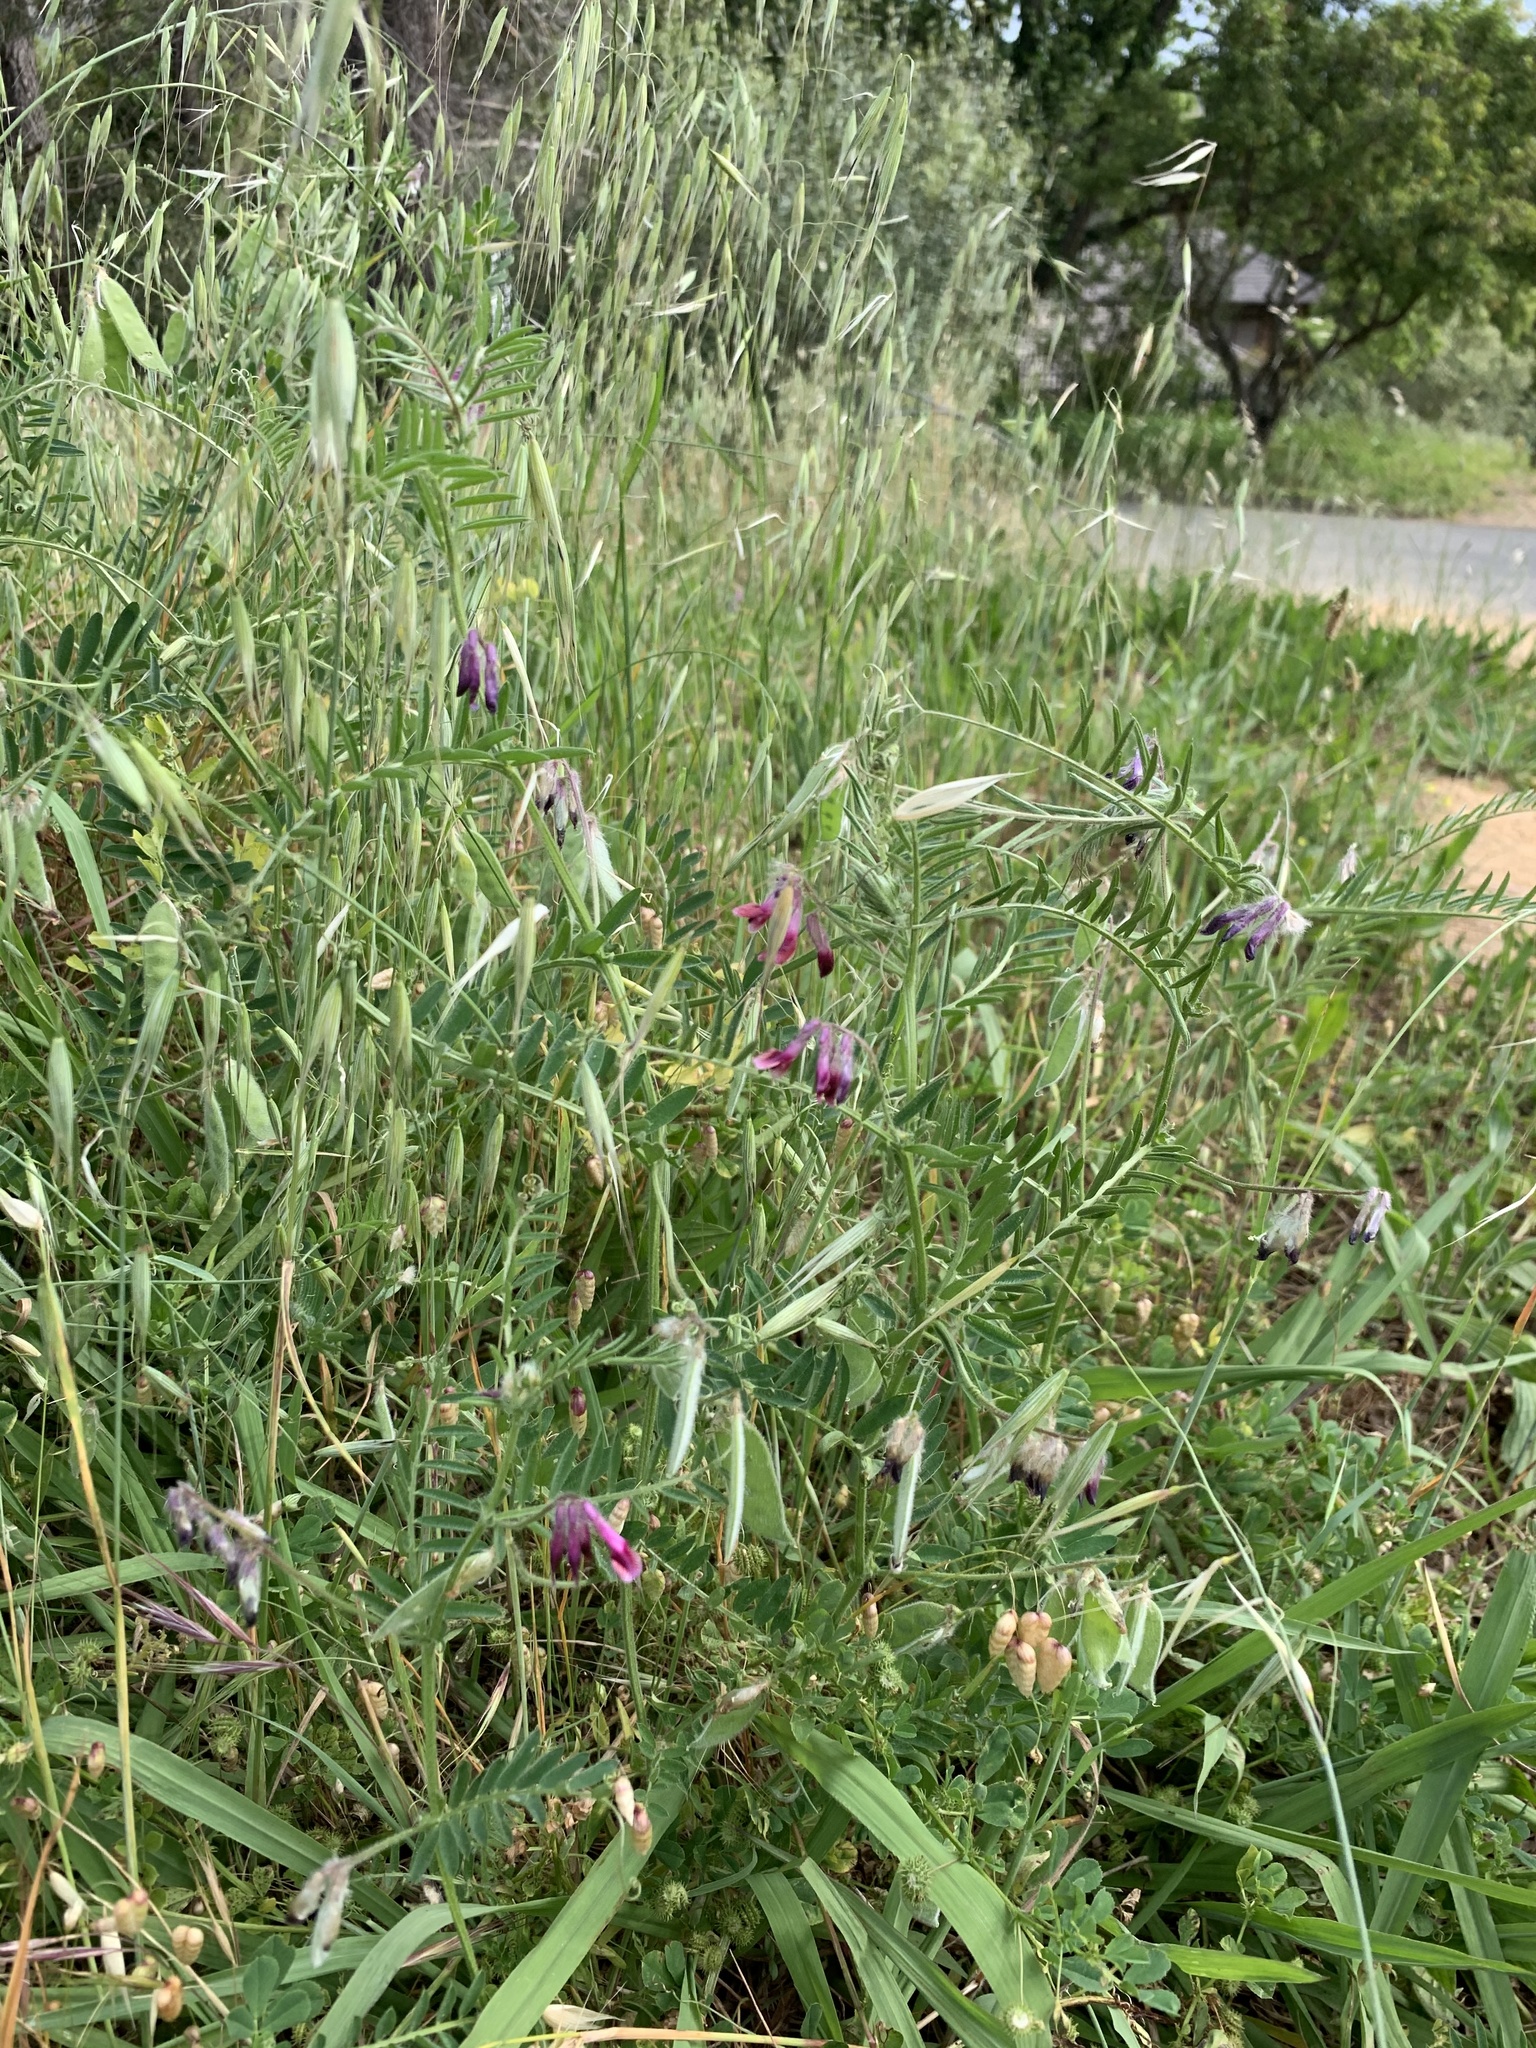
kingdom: Plantae
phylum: Tracheophyta
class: Magnoliopsida
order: Fabales
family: Fabaceae
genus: Vicia
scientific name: Vicia benghalensis
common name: Purple vetch
